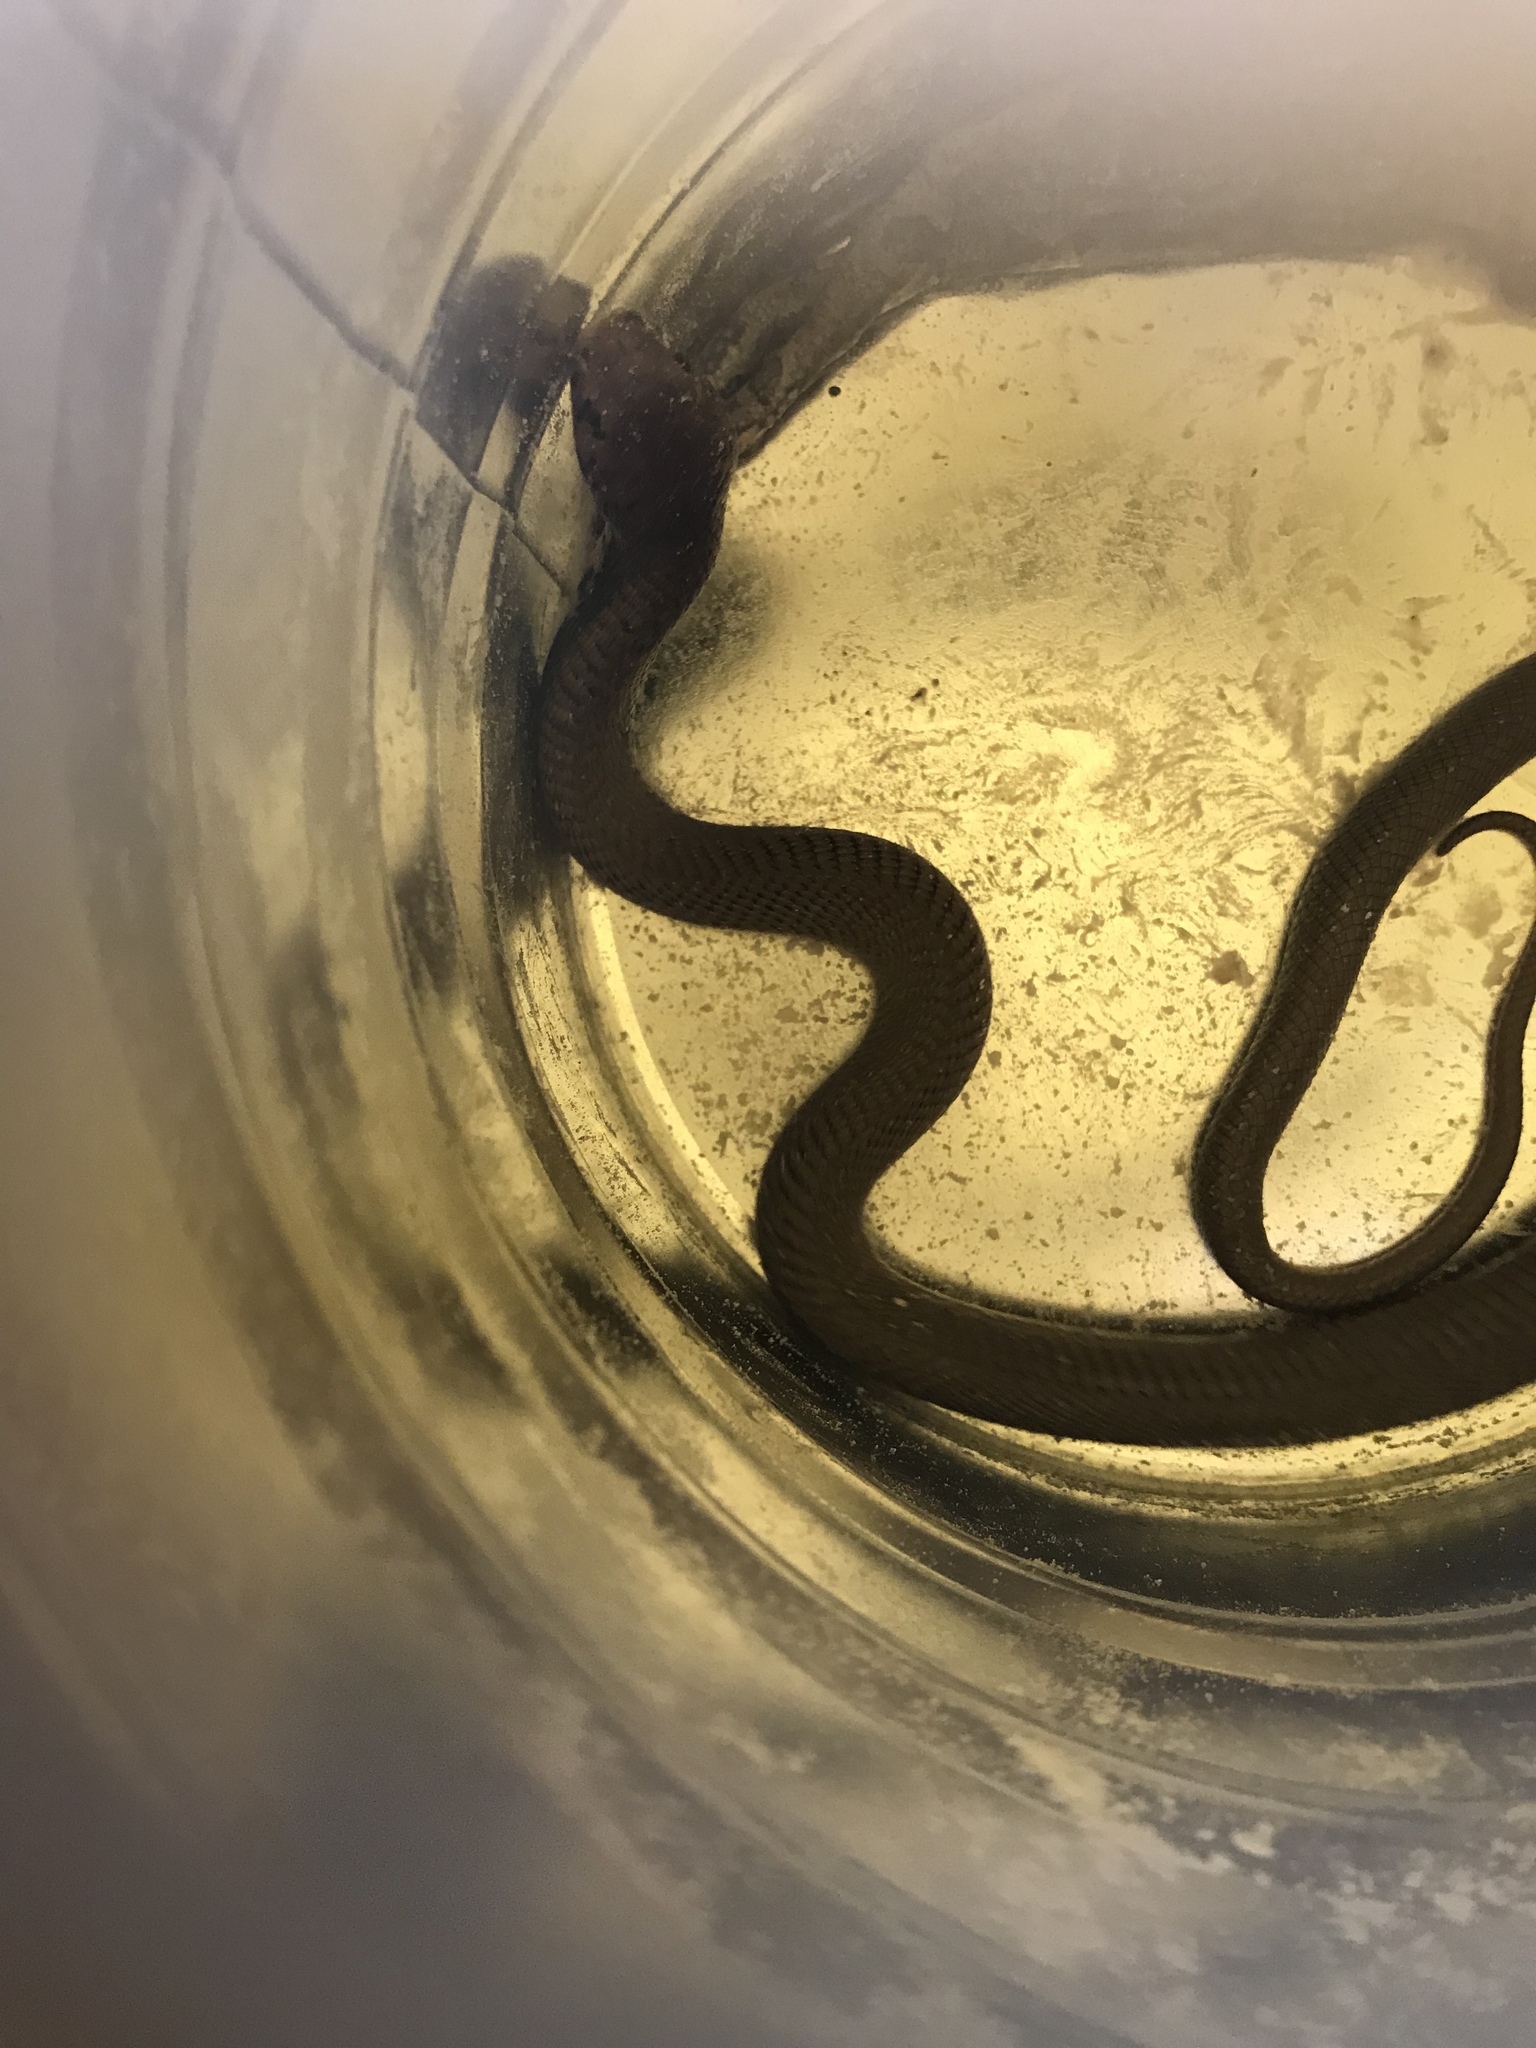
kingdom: Animalia
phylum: Chordata
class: Squamata
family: Elapidae
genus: Naja
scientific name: Naja mossambica
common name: Mozambique spitting cobra
